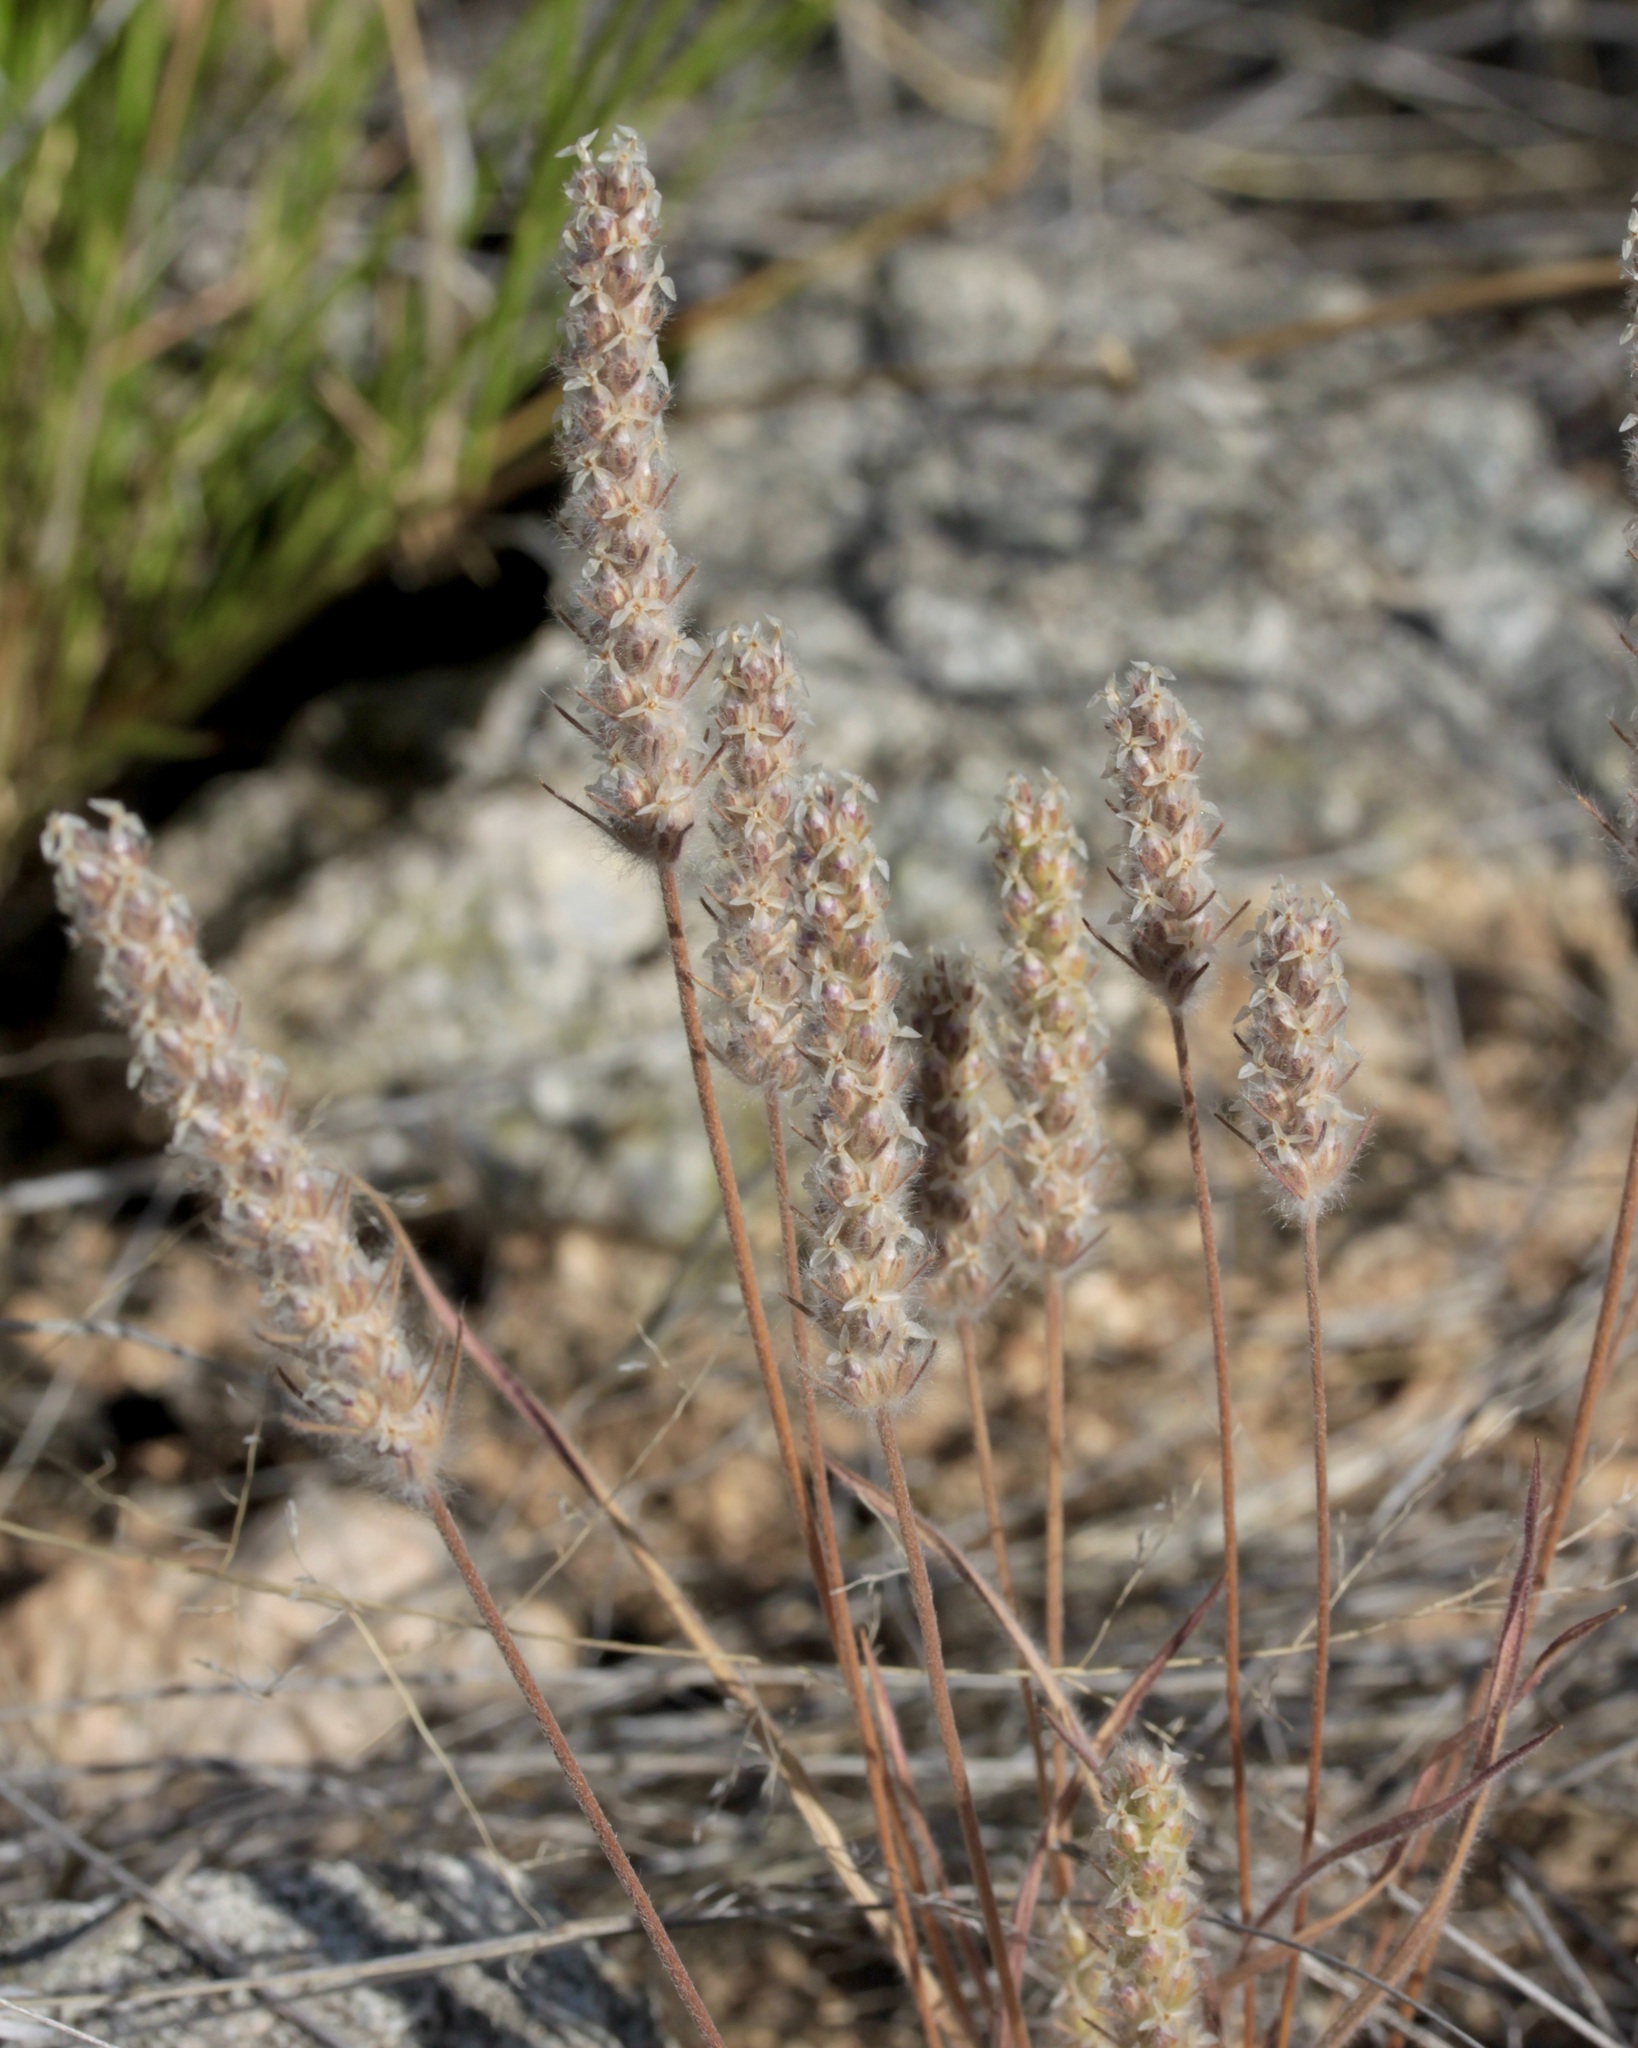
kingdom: Plantae
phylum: Tracheophyta
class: Magnoliopsida
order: Lamiales
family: Plantaginaceae
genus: Plantago
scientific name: Plantago patagonica
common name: Patagonia indian-wheat
